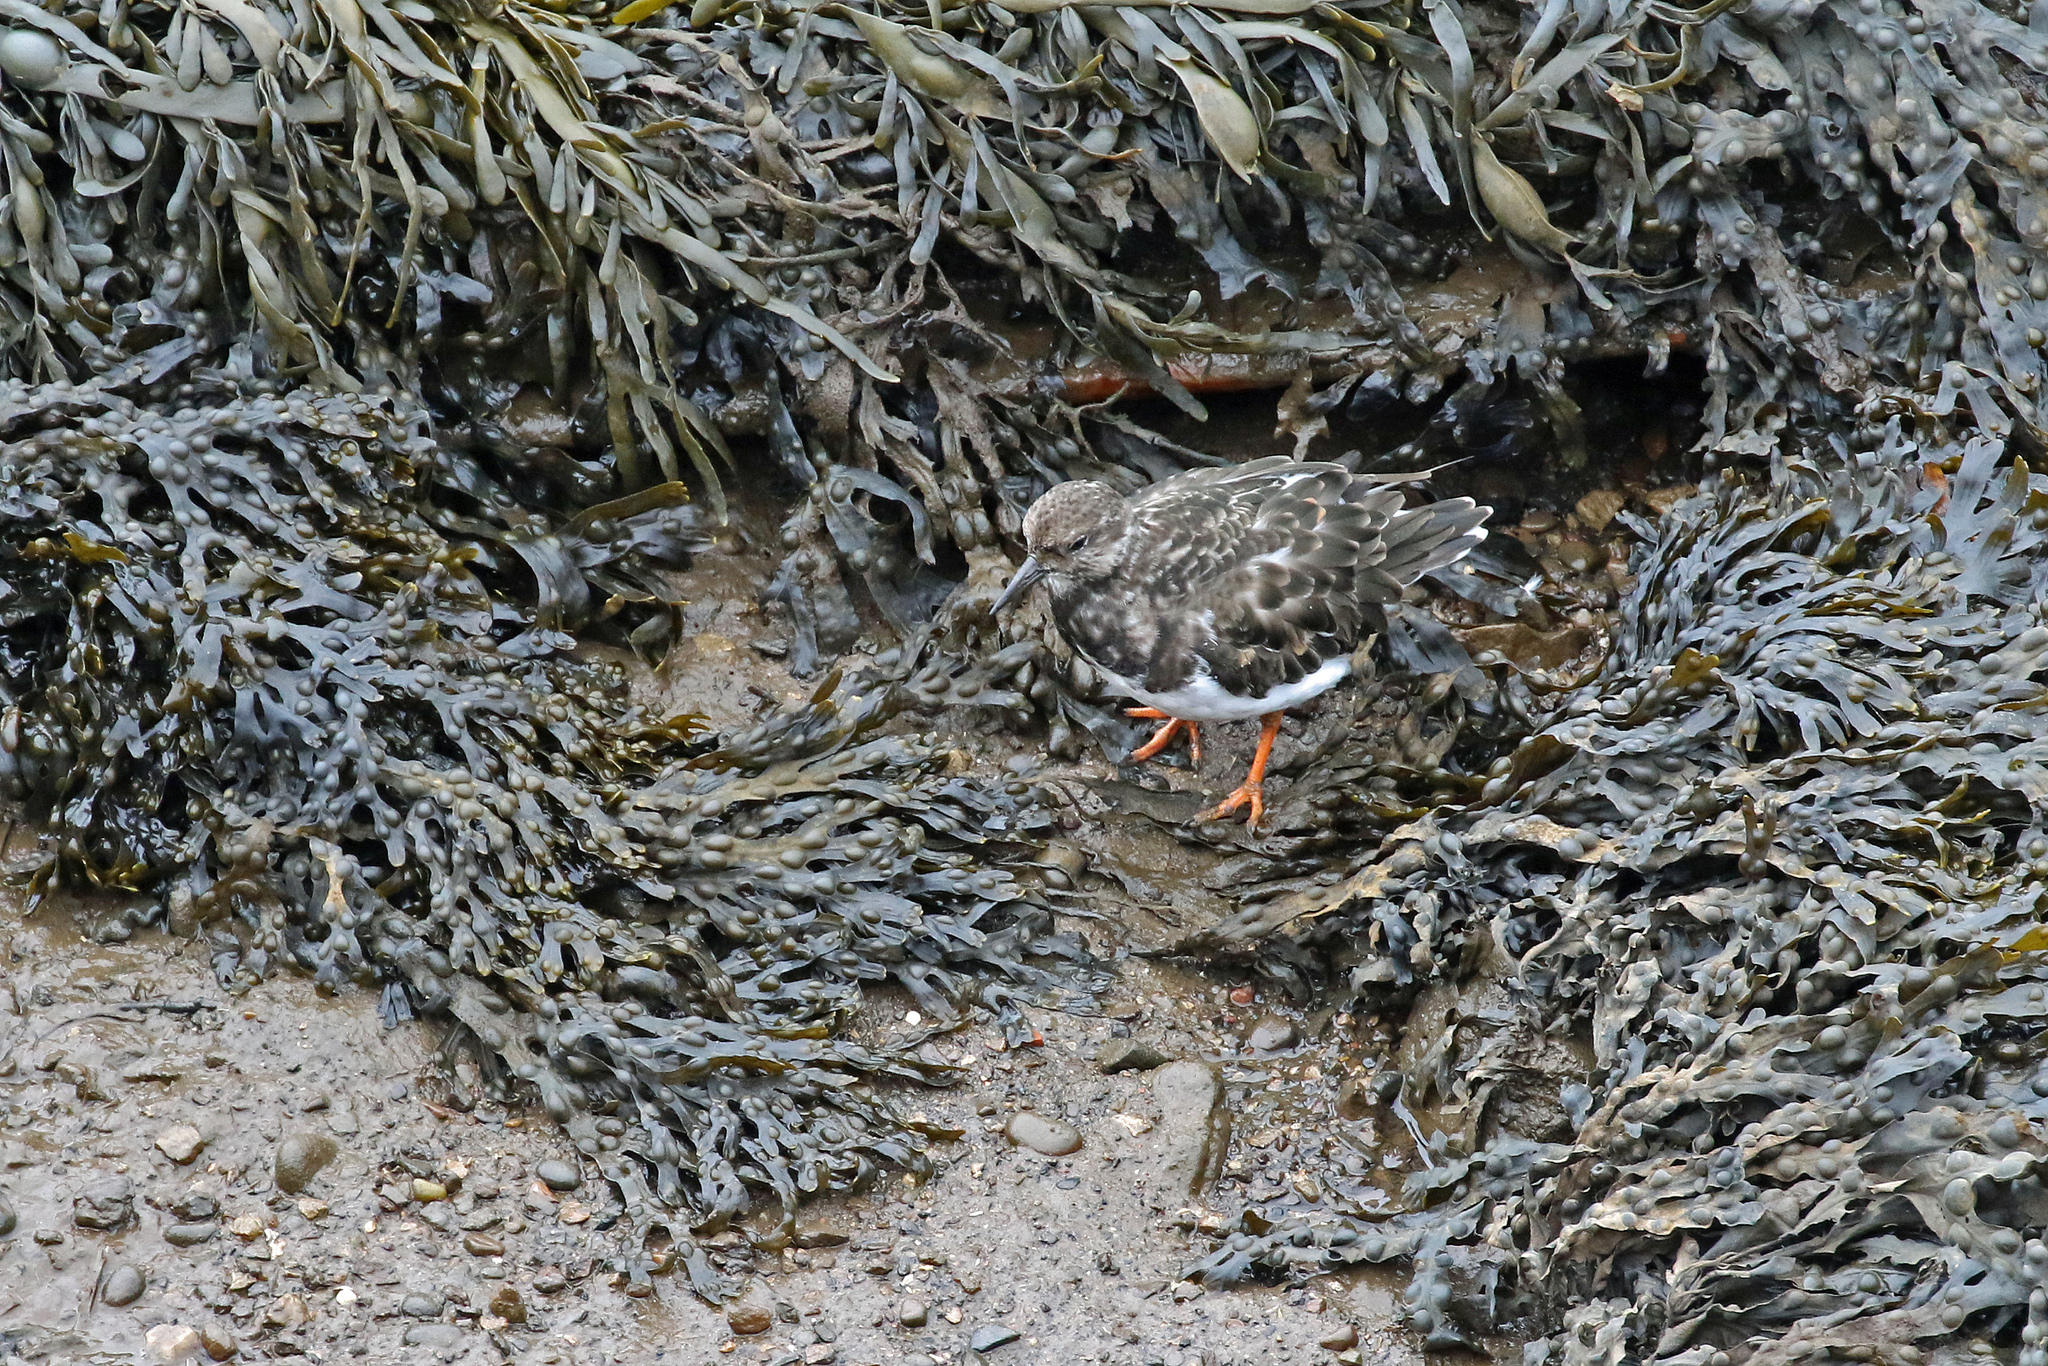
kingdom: Animalia
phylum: Chordata
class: Aves
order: Charadriiformes
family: Scolopacidae
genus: Arenaria
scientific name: Arenaria interpres
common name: Ruddy turnstone
